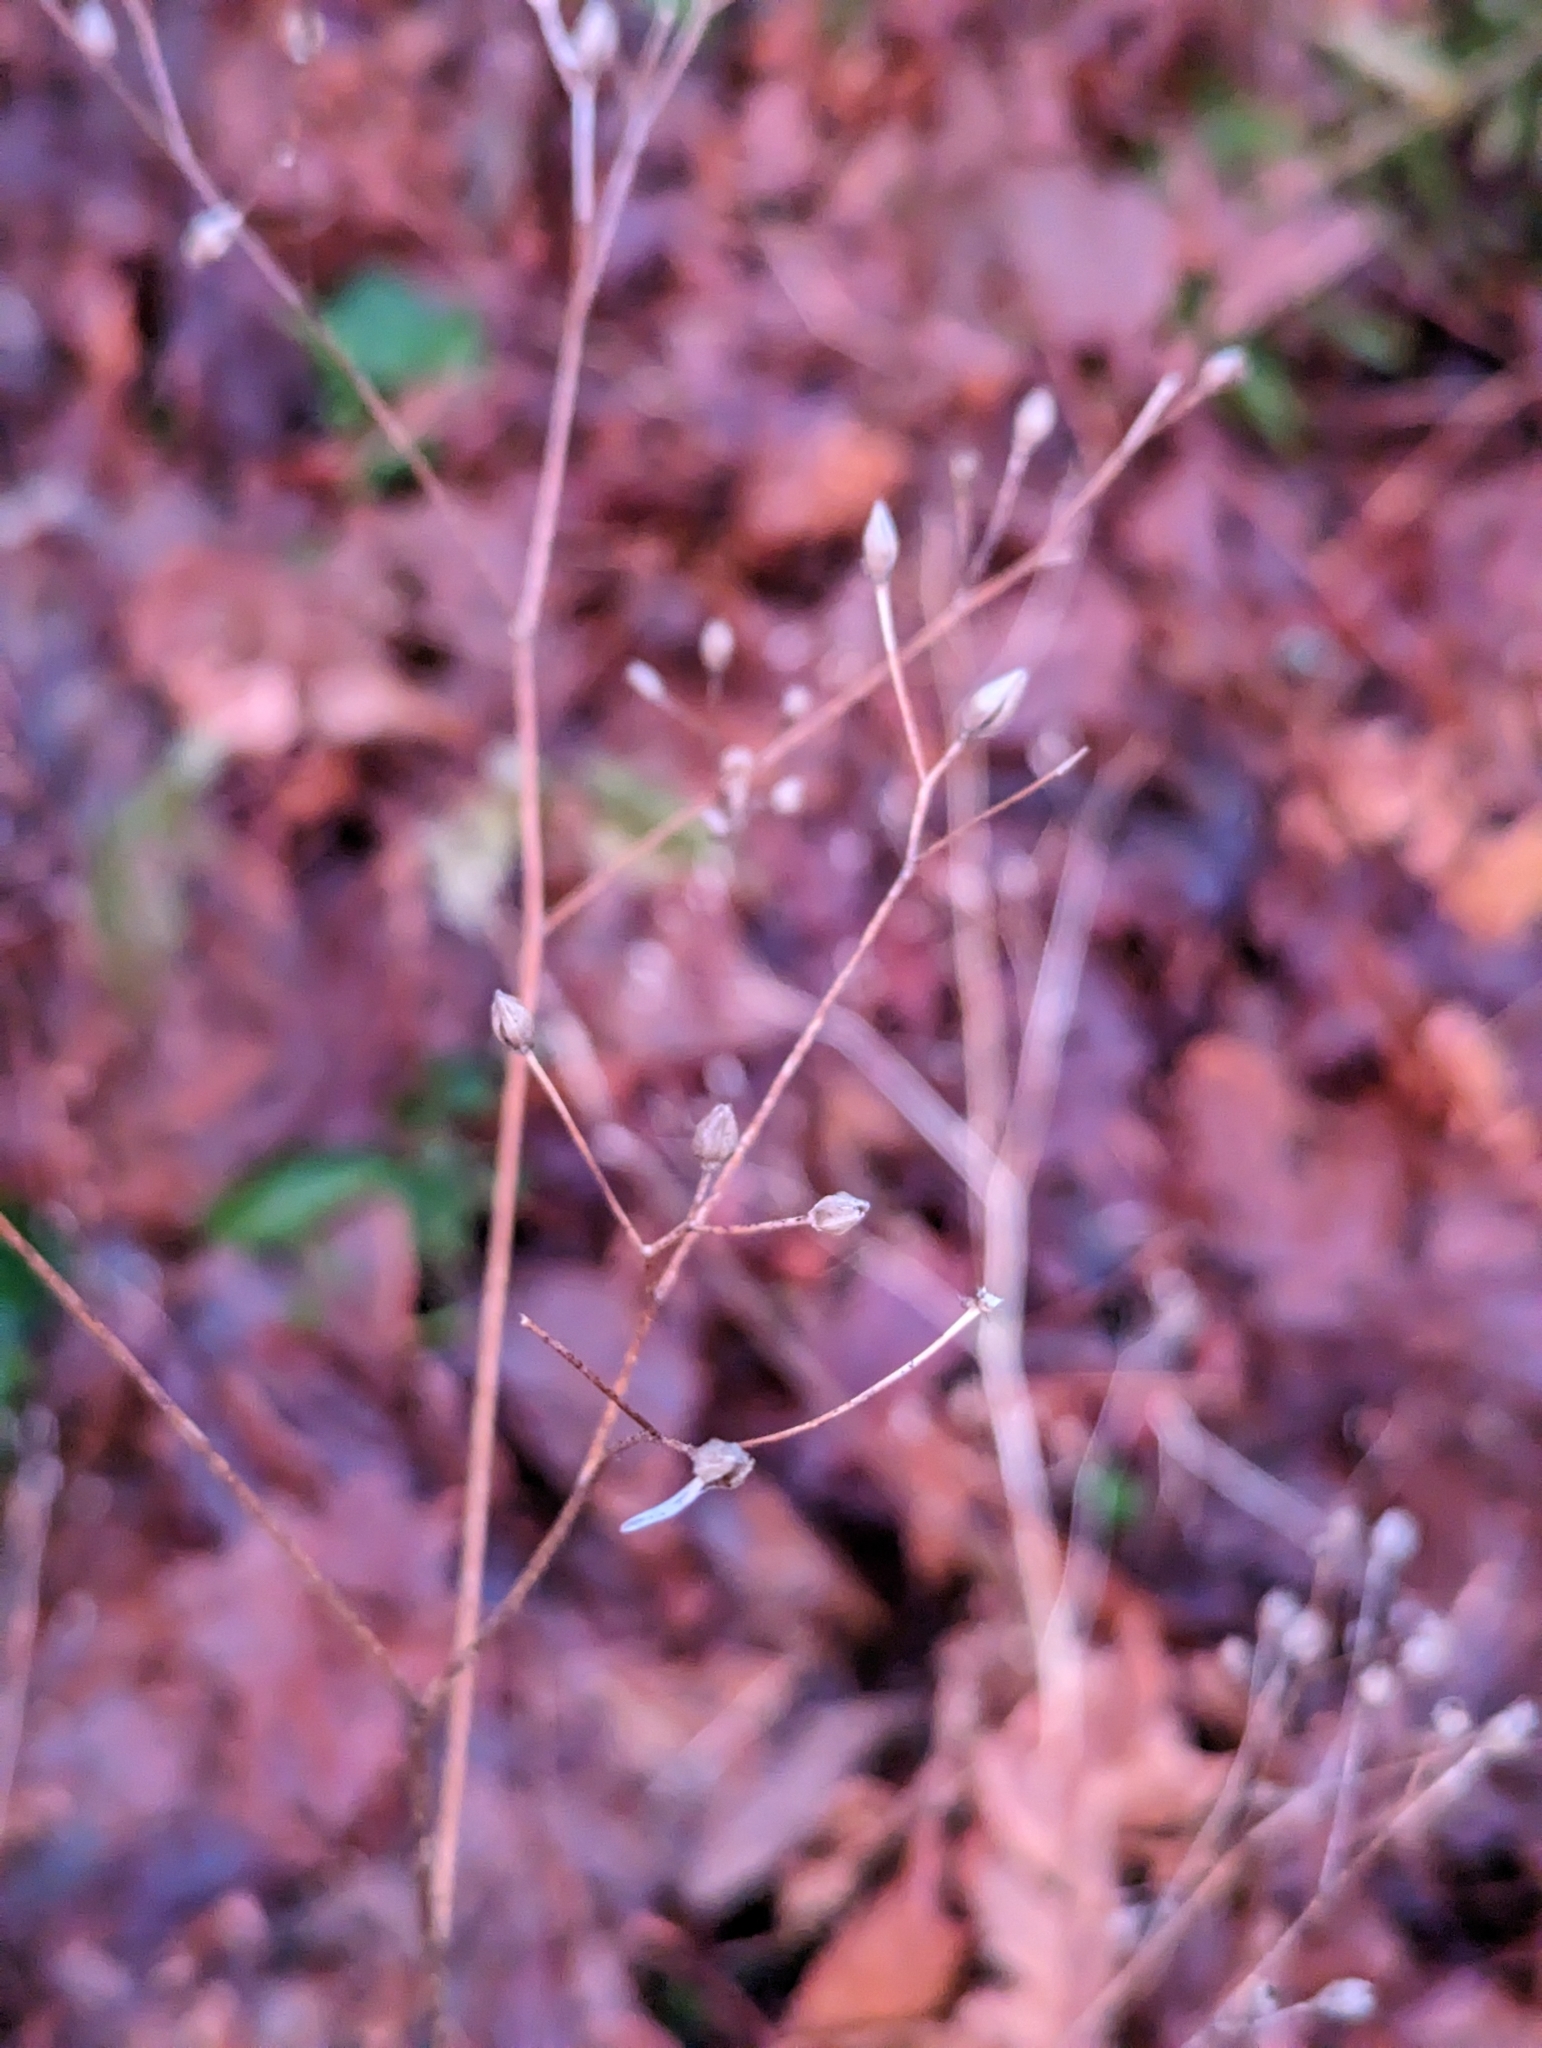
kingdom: Plantae
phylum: Tracheophyta
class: Magnoliopsida
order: Asterales
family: Asteraceae
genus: Lapsana
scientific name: Lapsana communis
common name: Nipplewort
